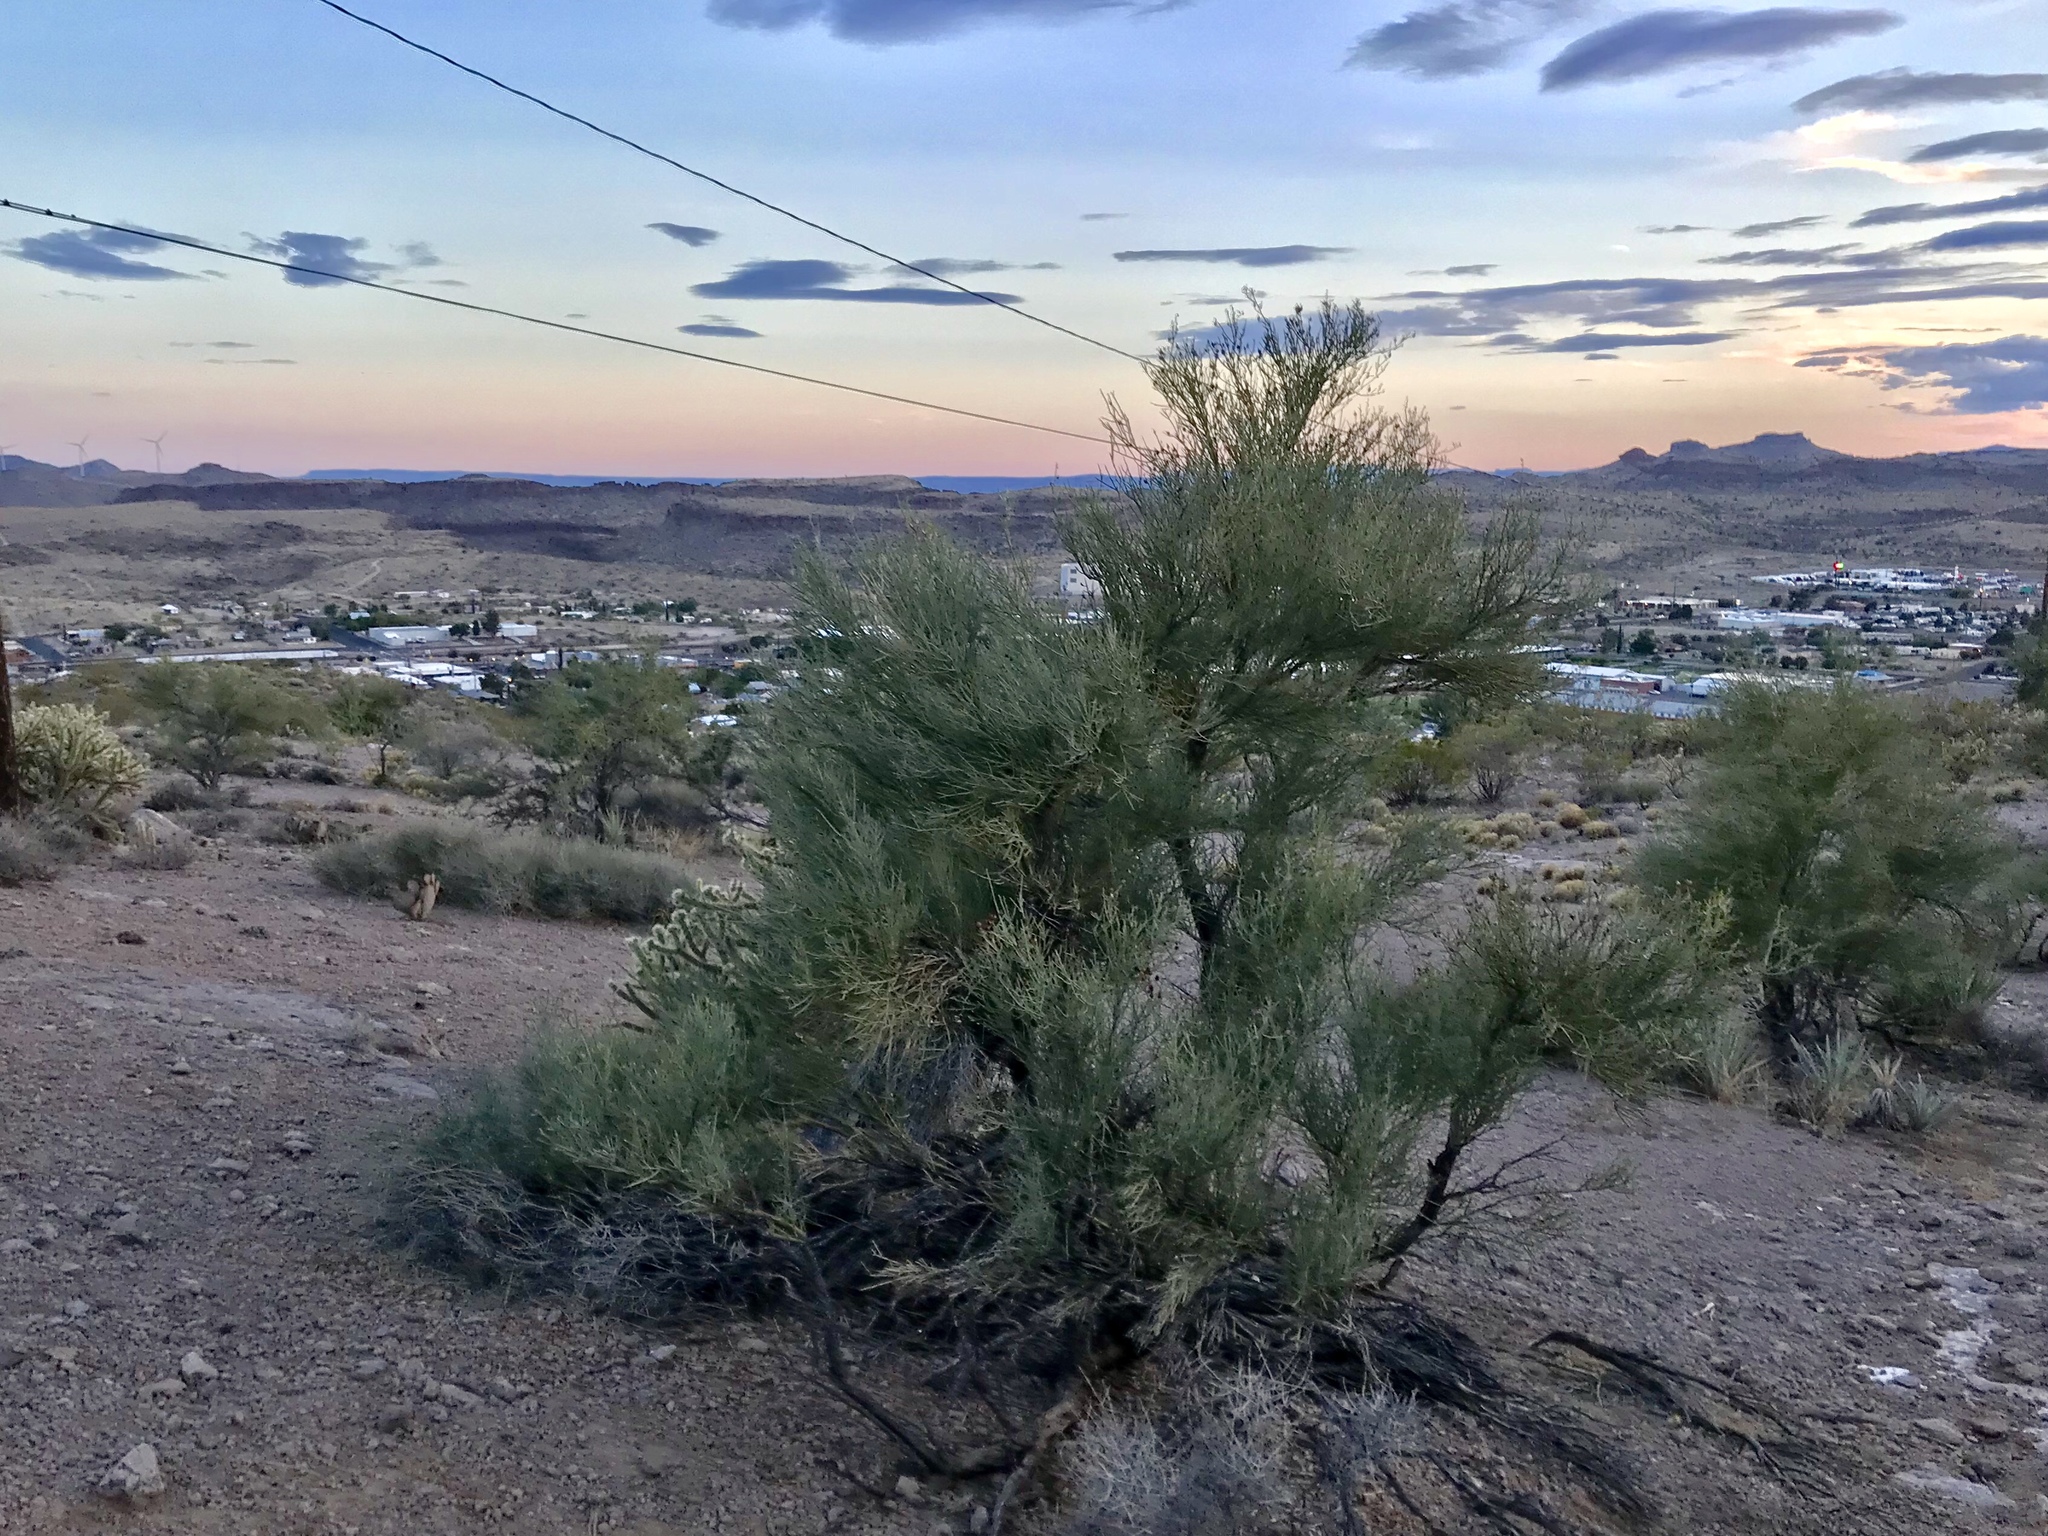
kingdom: Plantae
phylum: Tracheophyta
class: Magnoliopsida
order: Celastrales
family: Celastraceae
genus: Canotia
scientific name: Canotia holacantha
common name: Crucifixion thorns
